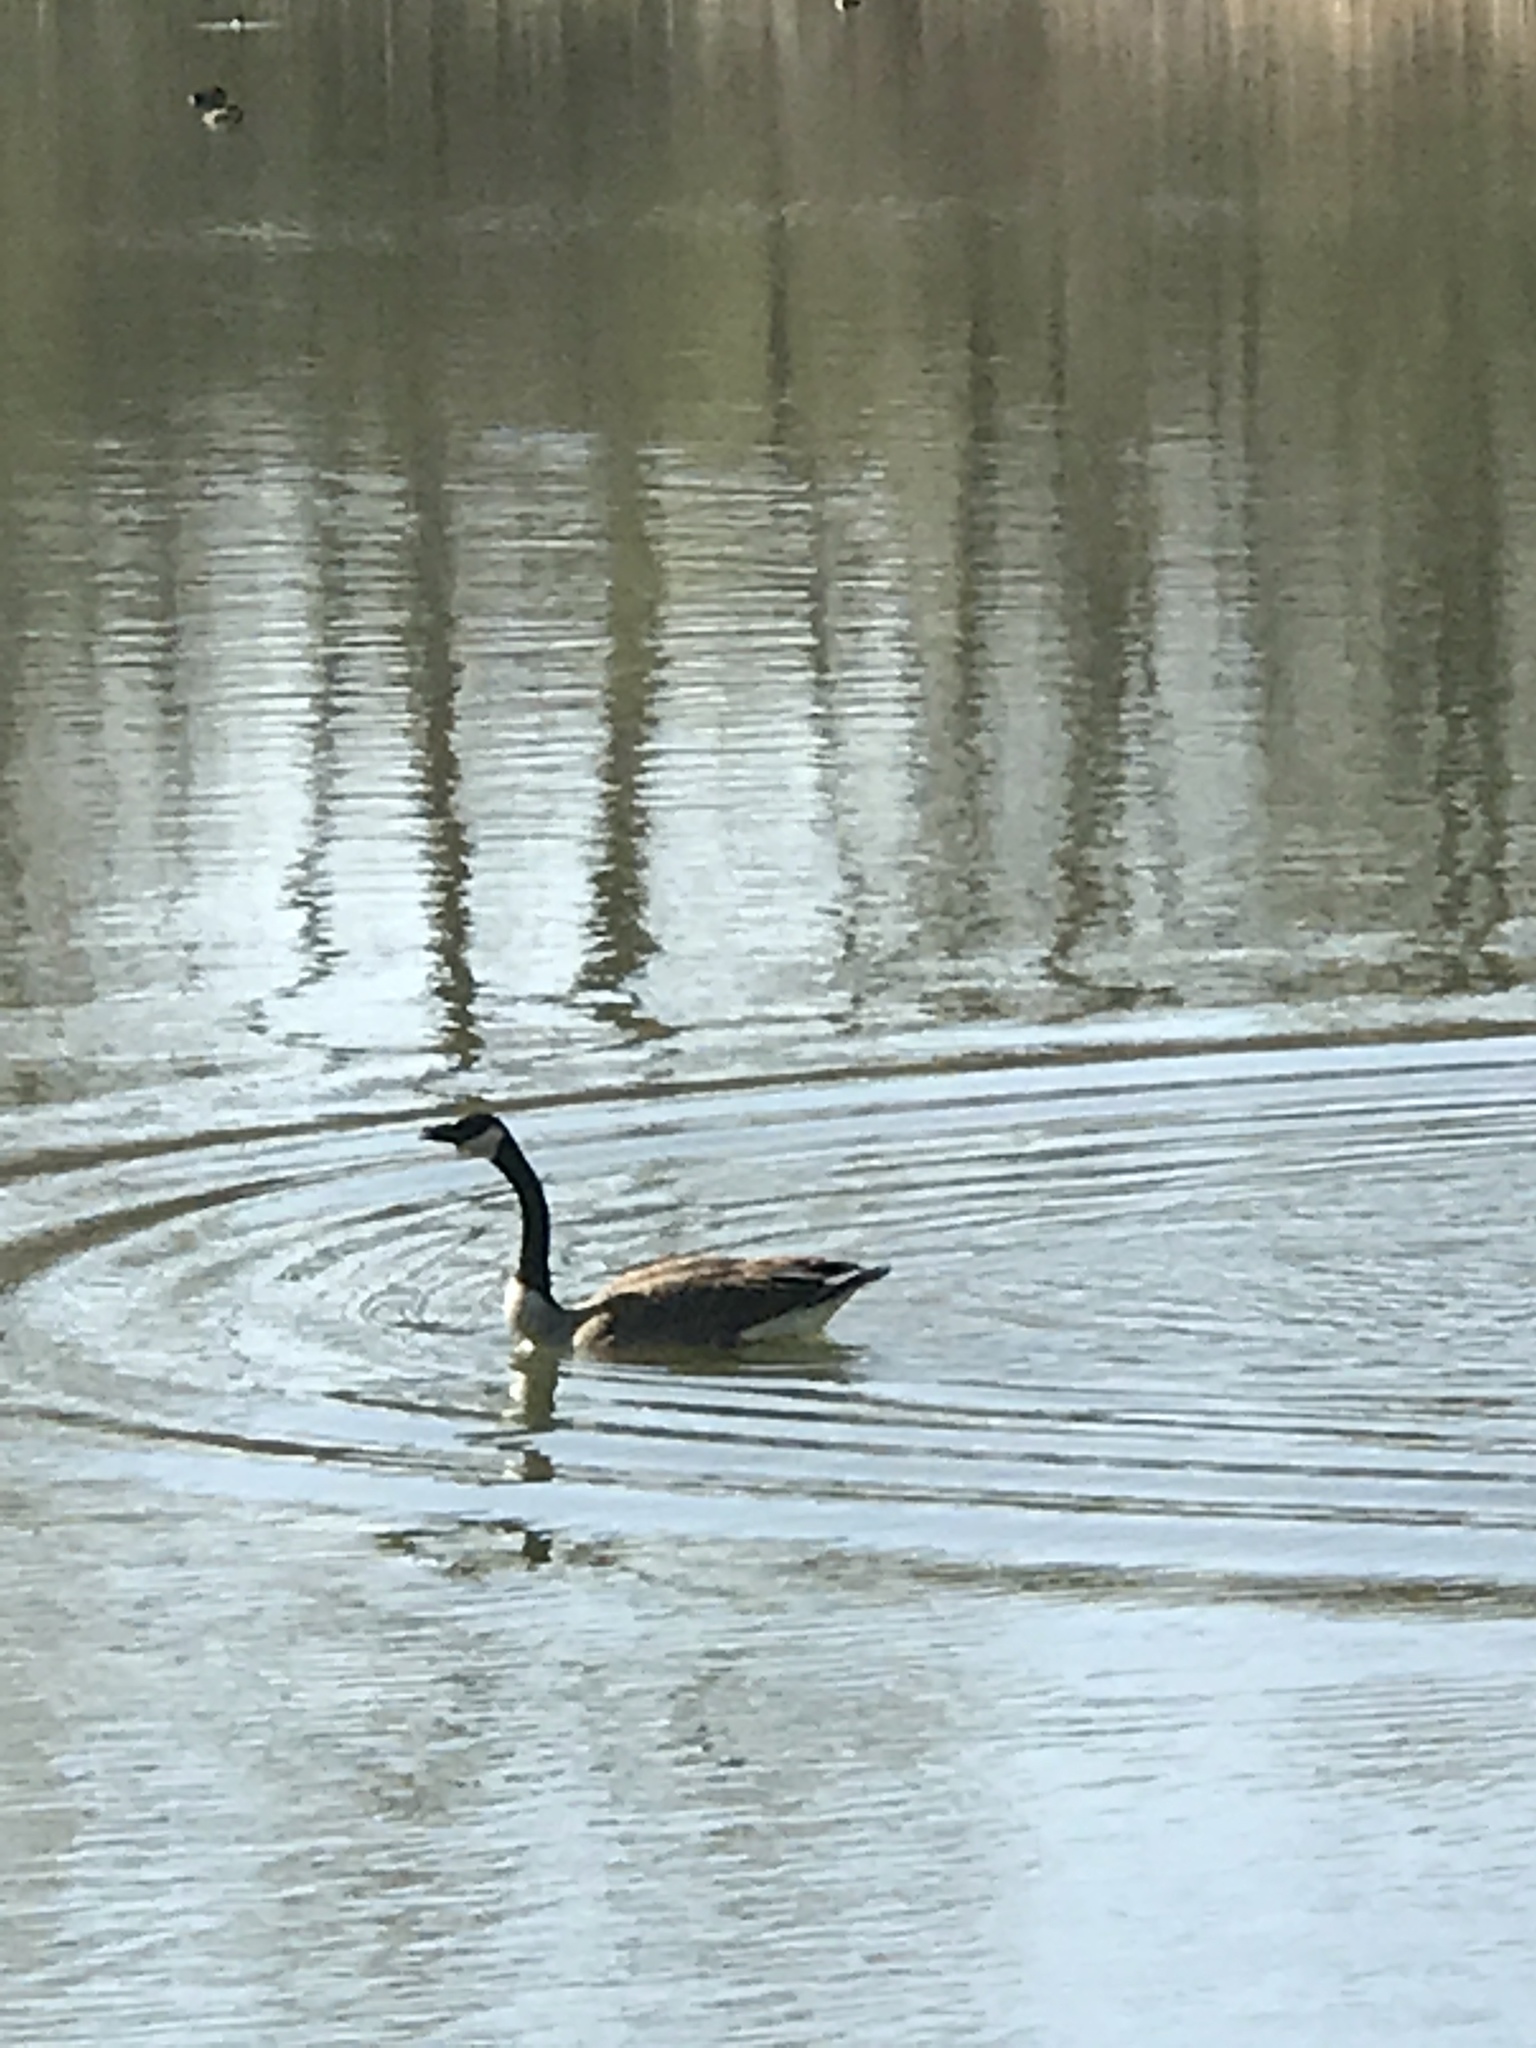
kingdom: Animalia
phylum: Chordata
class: Aves
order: Anseriformes
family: Anatidae
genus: Branta
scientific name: Branta canadensis
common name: Canada goose
